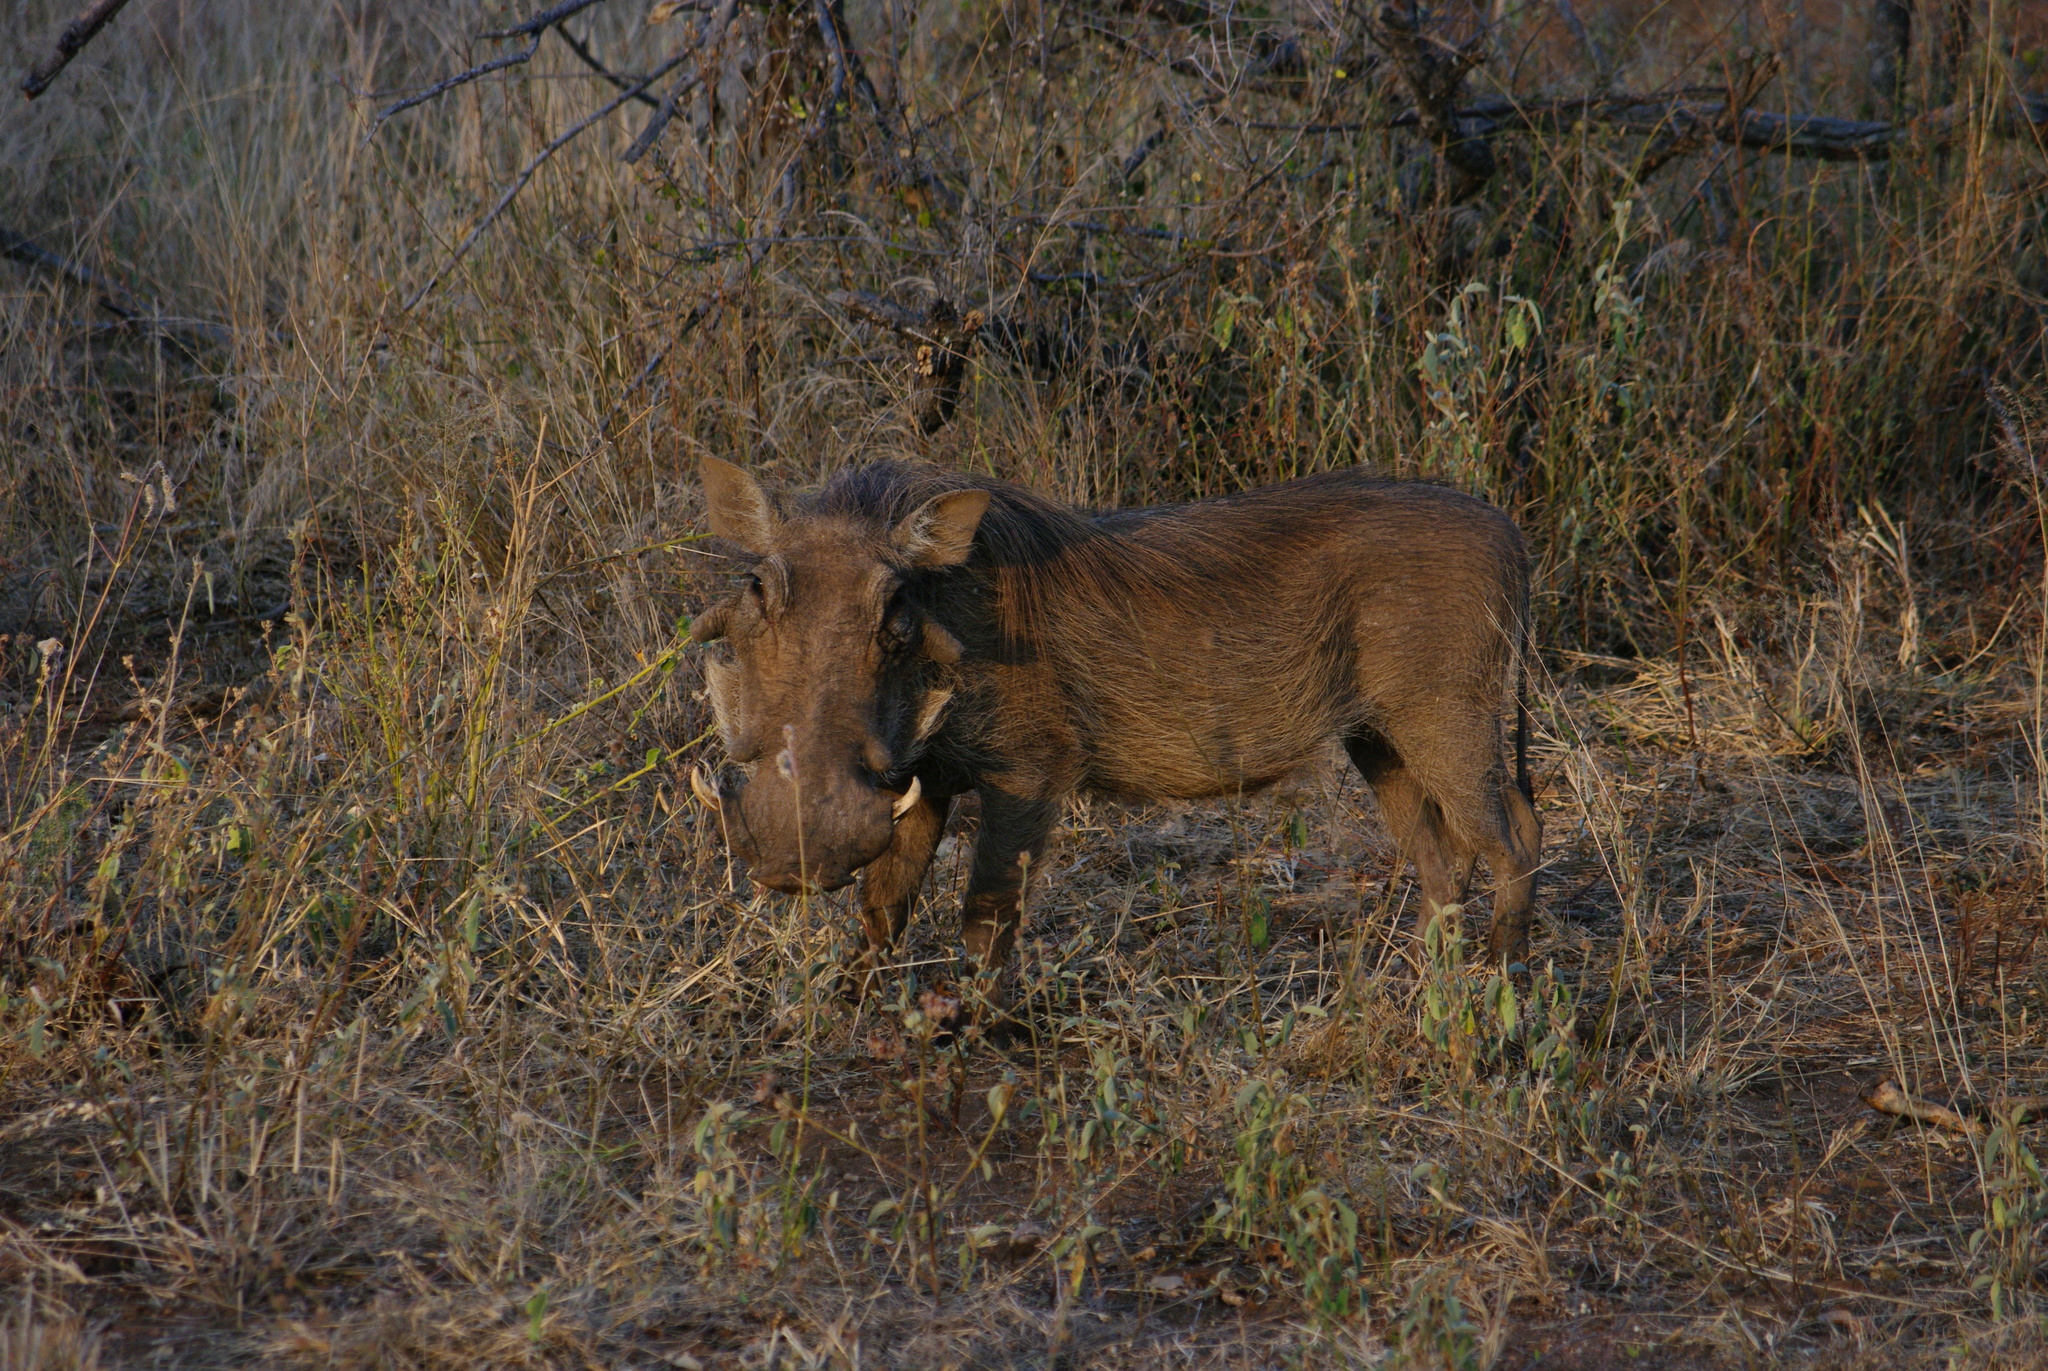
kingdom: Animalia
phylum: Chordata
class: Mammalia
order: Artiodactyla
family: Suidae
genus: Phacochoerus
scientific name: Phacochoerus africanus
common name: Common warthog
